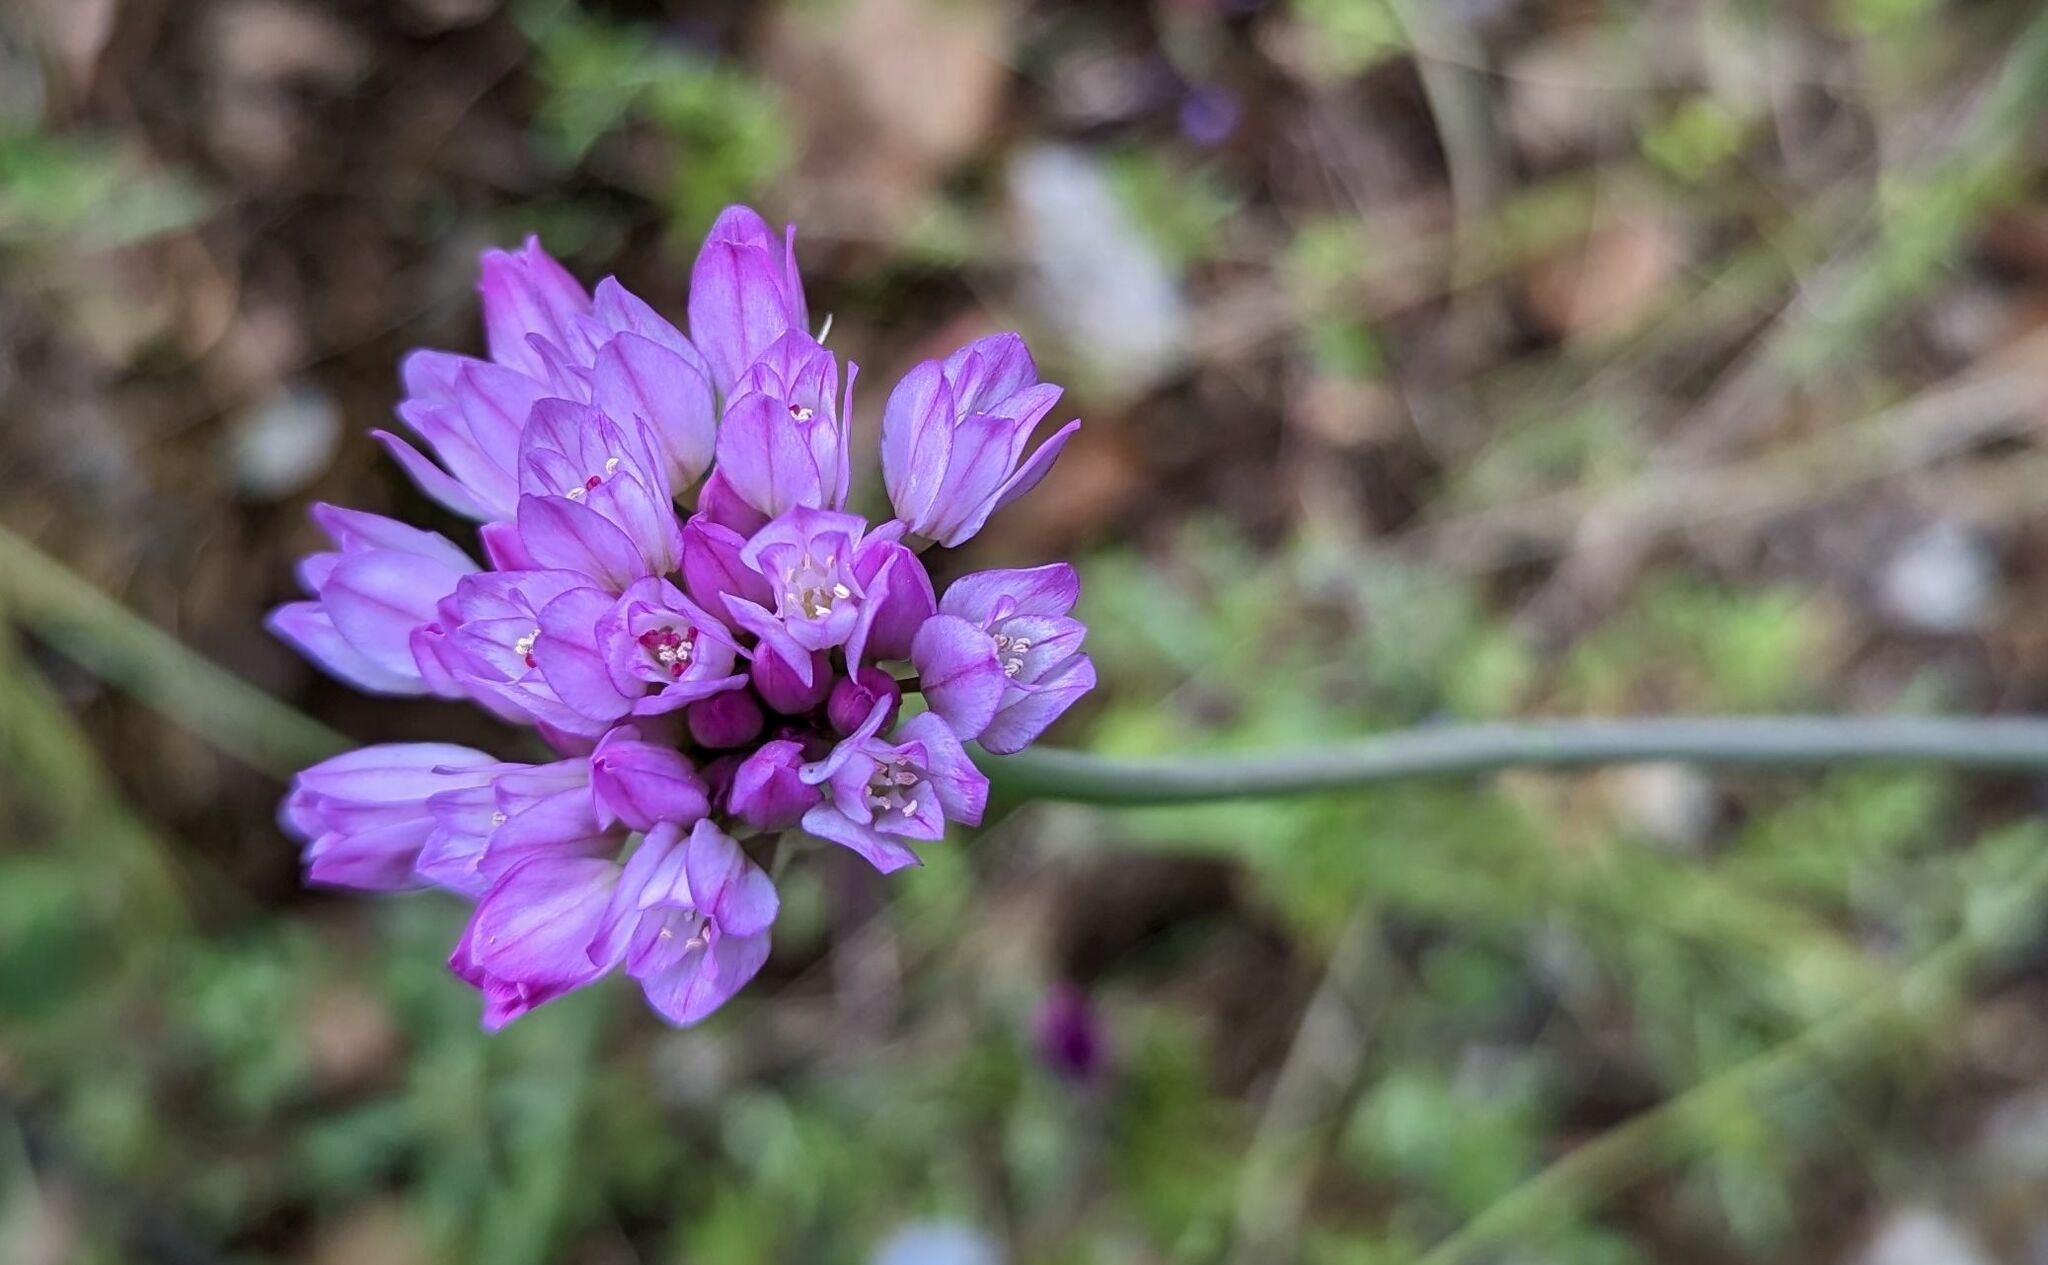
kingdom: Plantae
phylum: Tracheophyta
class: Liliopsida
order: Asparagales
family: Amaryllidaceae
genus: Allium
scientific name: Allium serra
